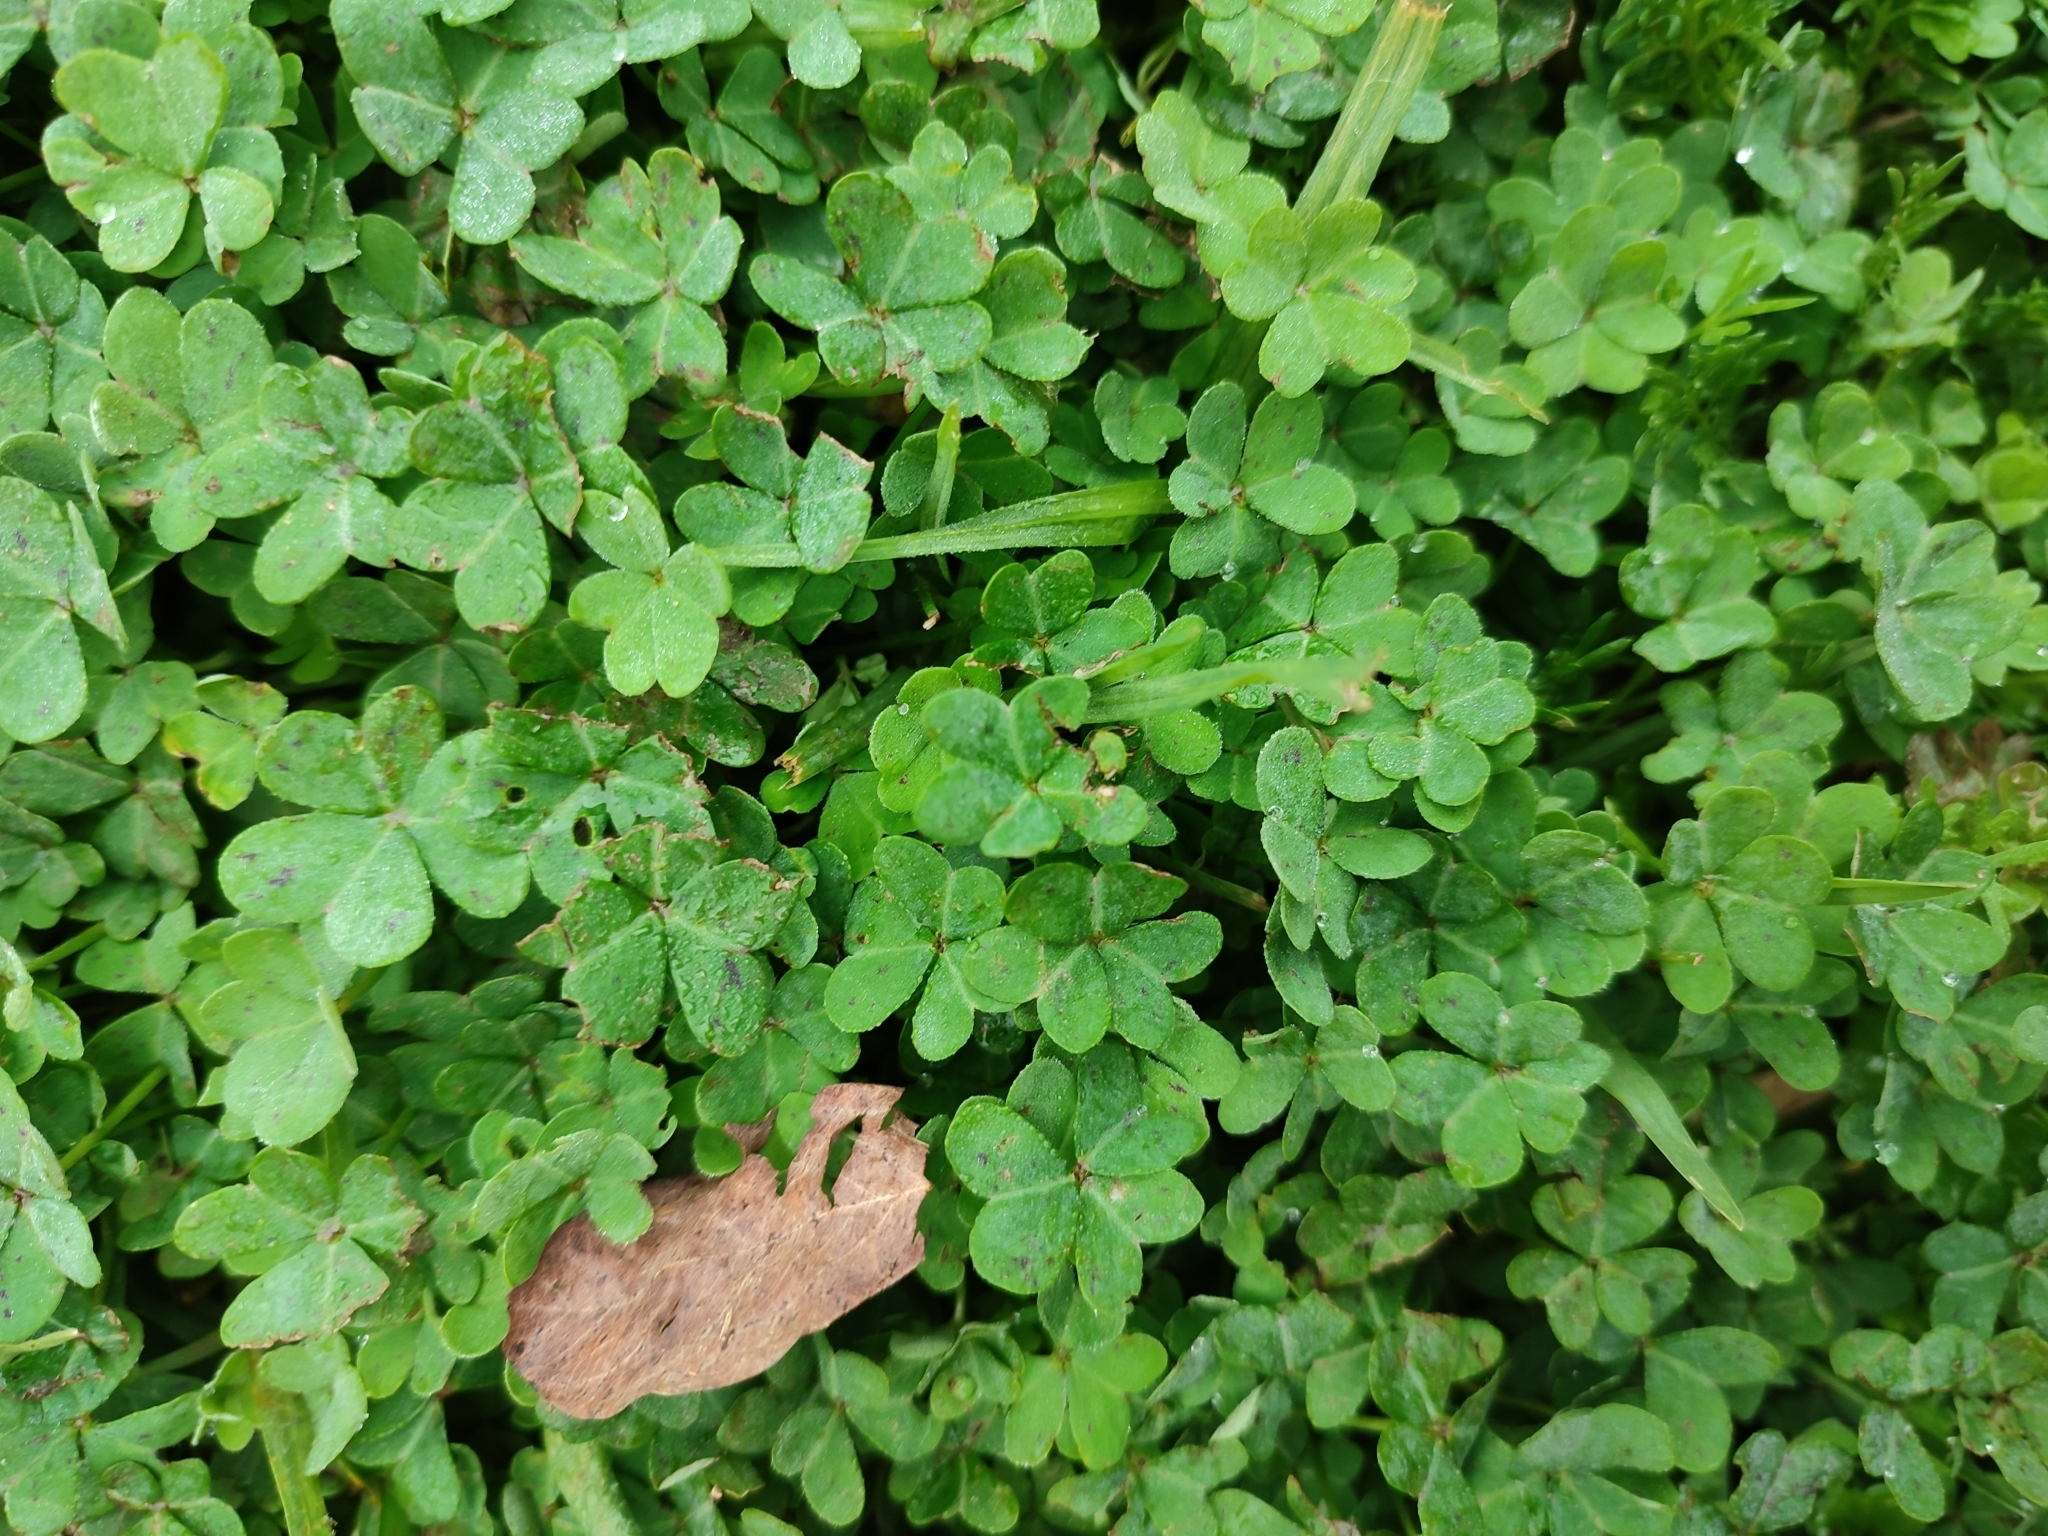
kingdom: Plantae
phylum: Tracheophyta
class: Magnoliopsida
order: Oxalidales
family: Oxalidaceae
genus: Oxalis
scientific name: Oxalis pes-caprae
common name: Bermuda-buttercup
